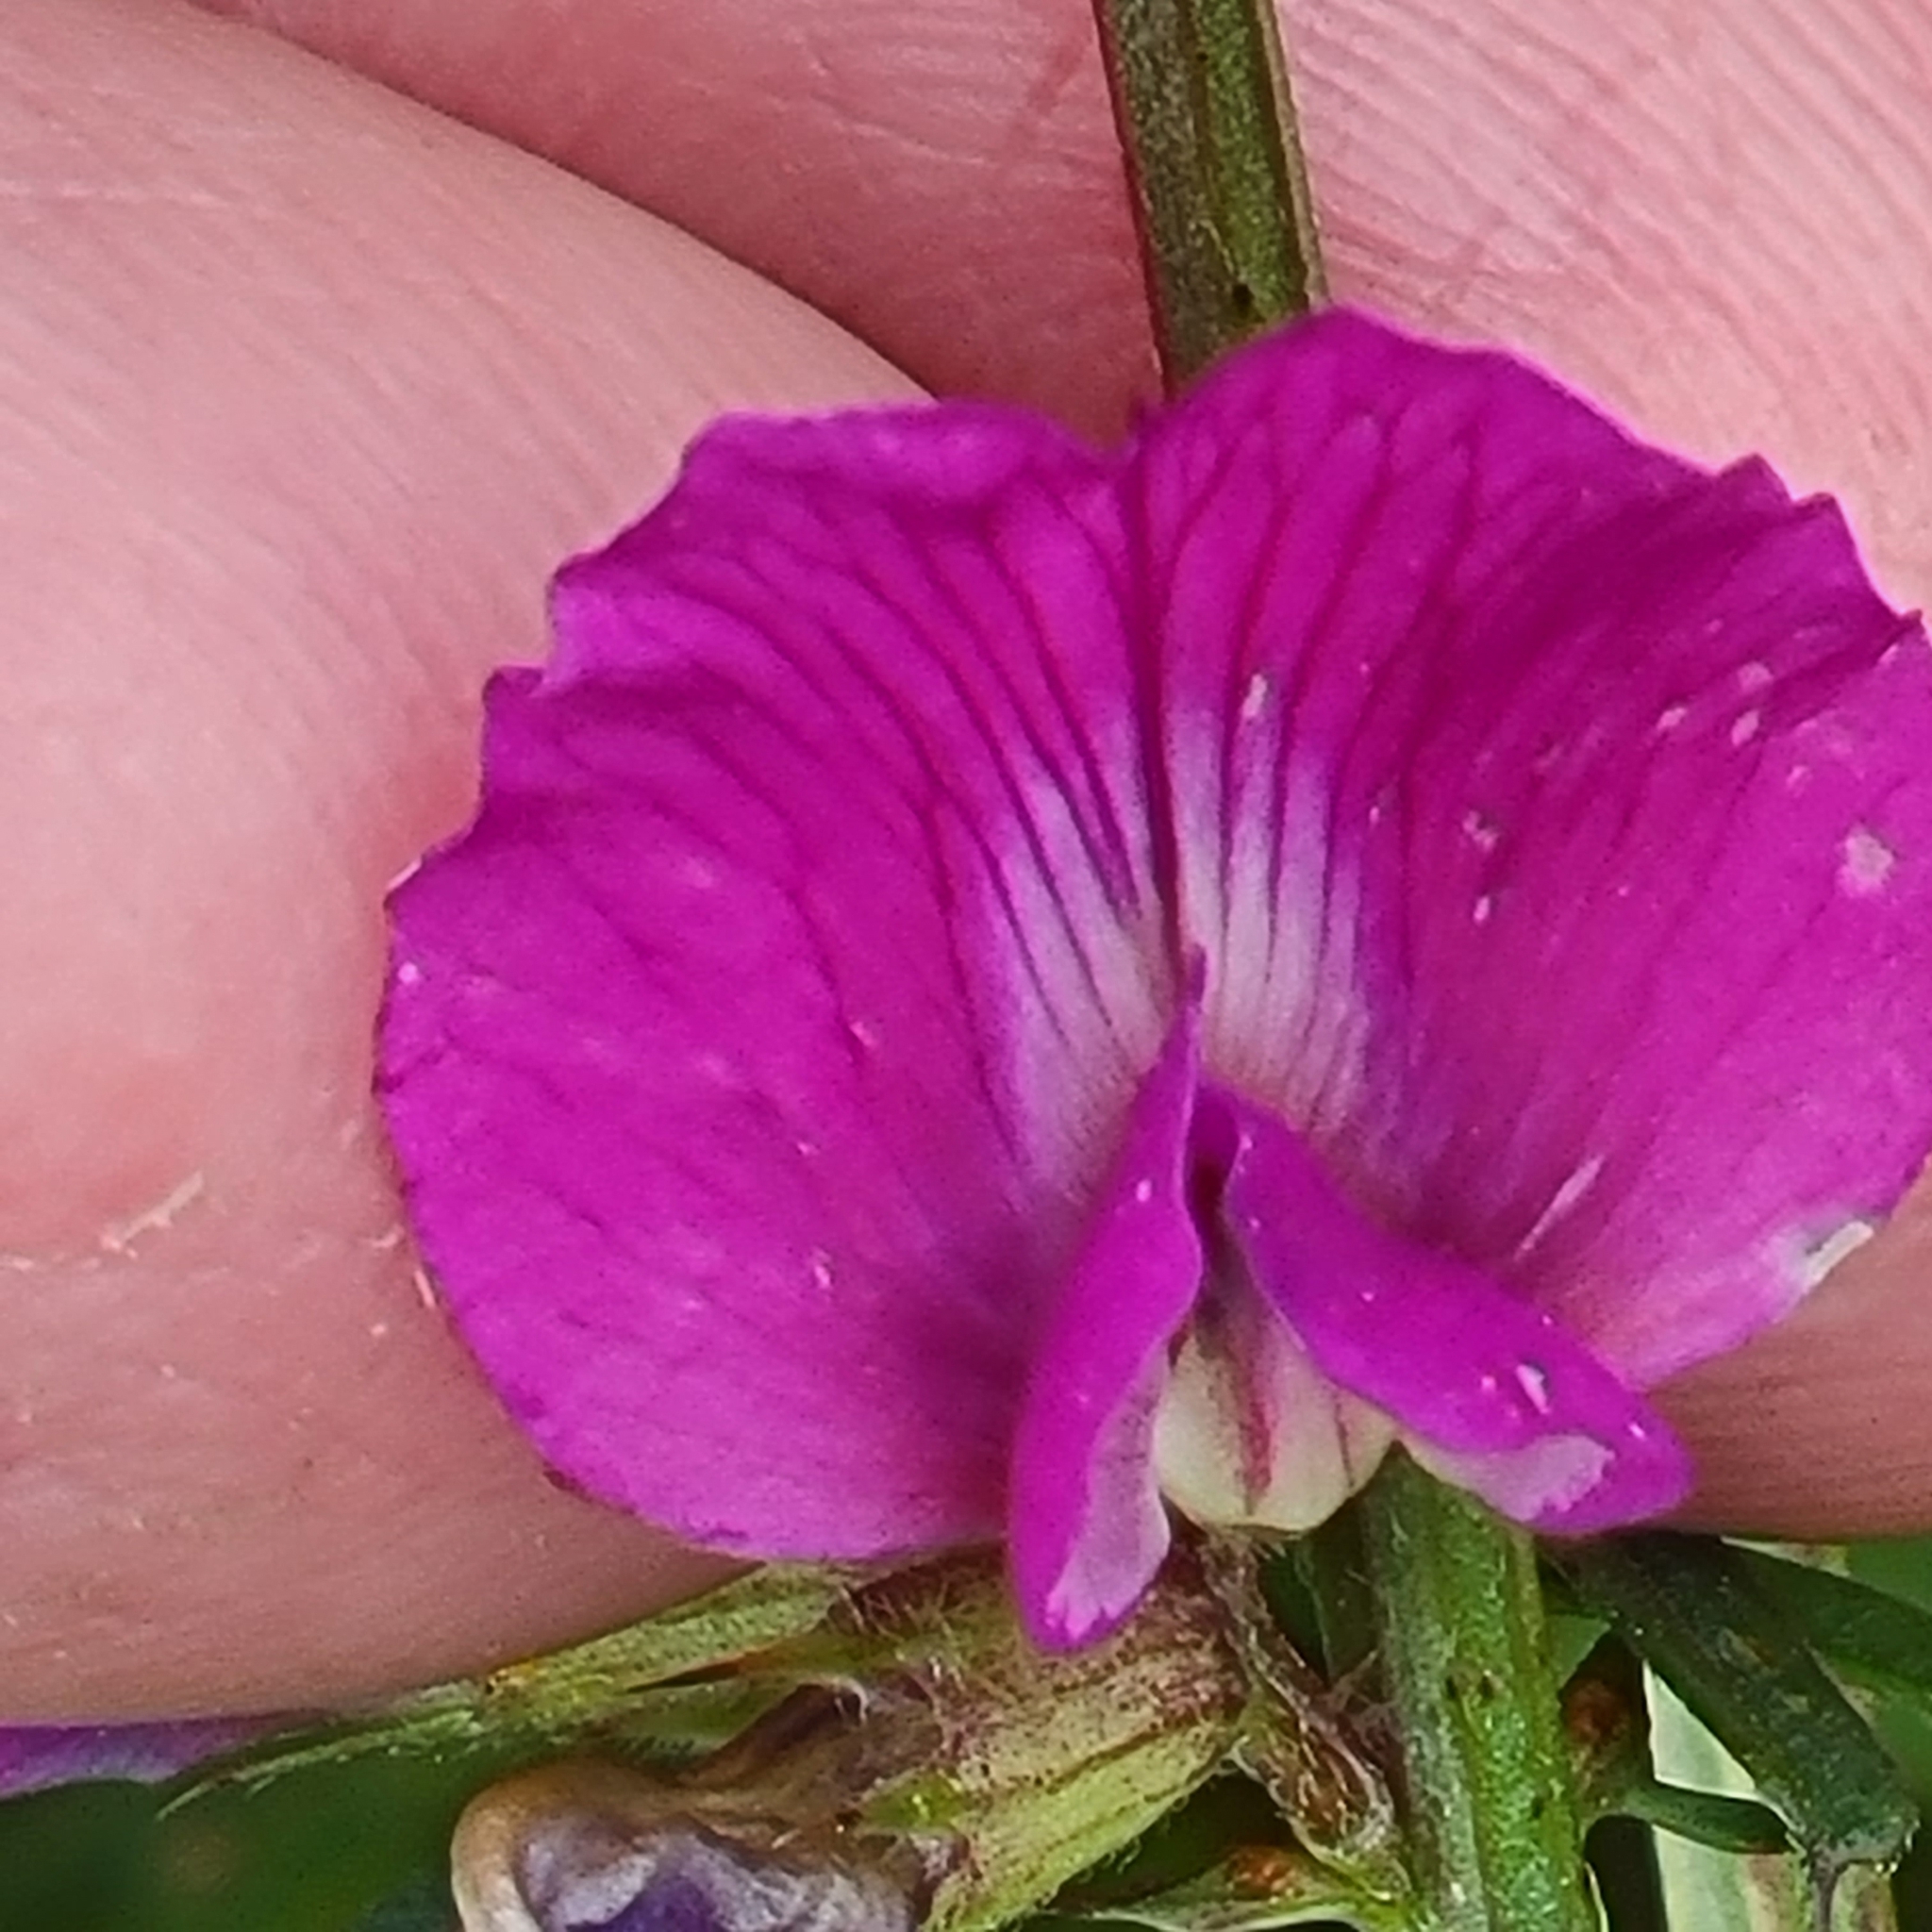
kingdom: Plantae
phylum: Tracheophyta
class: Magnoliopsida
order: Fabales
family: Fabaceae
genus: Vicia
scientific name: Vicia sativa
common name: Garden vetch
